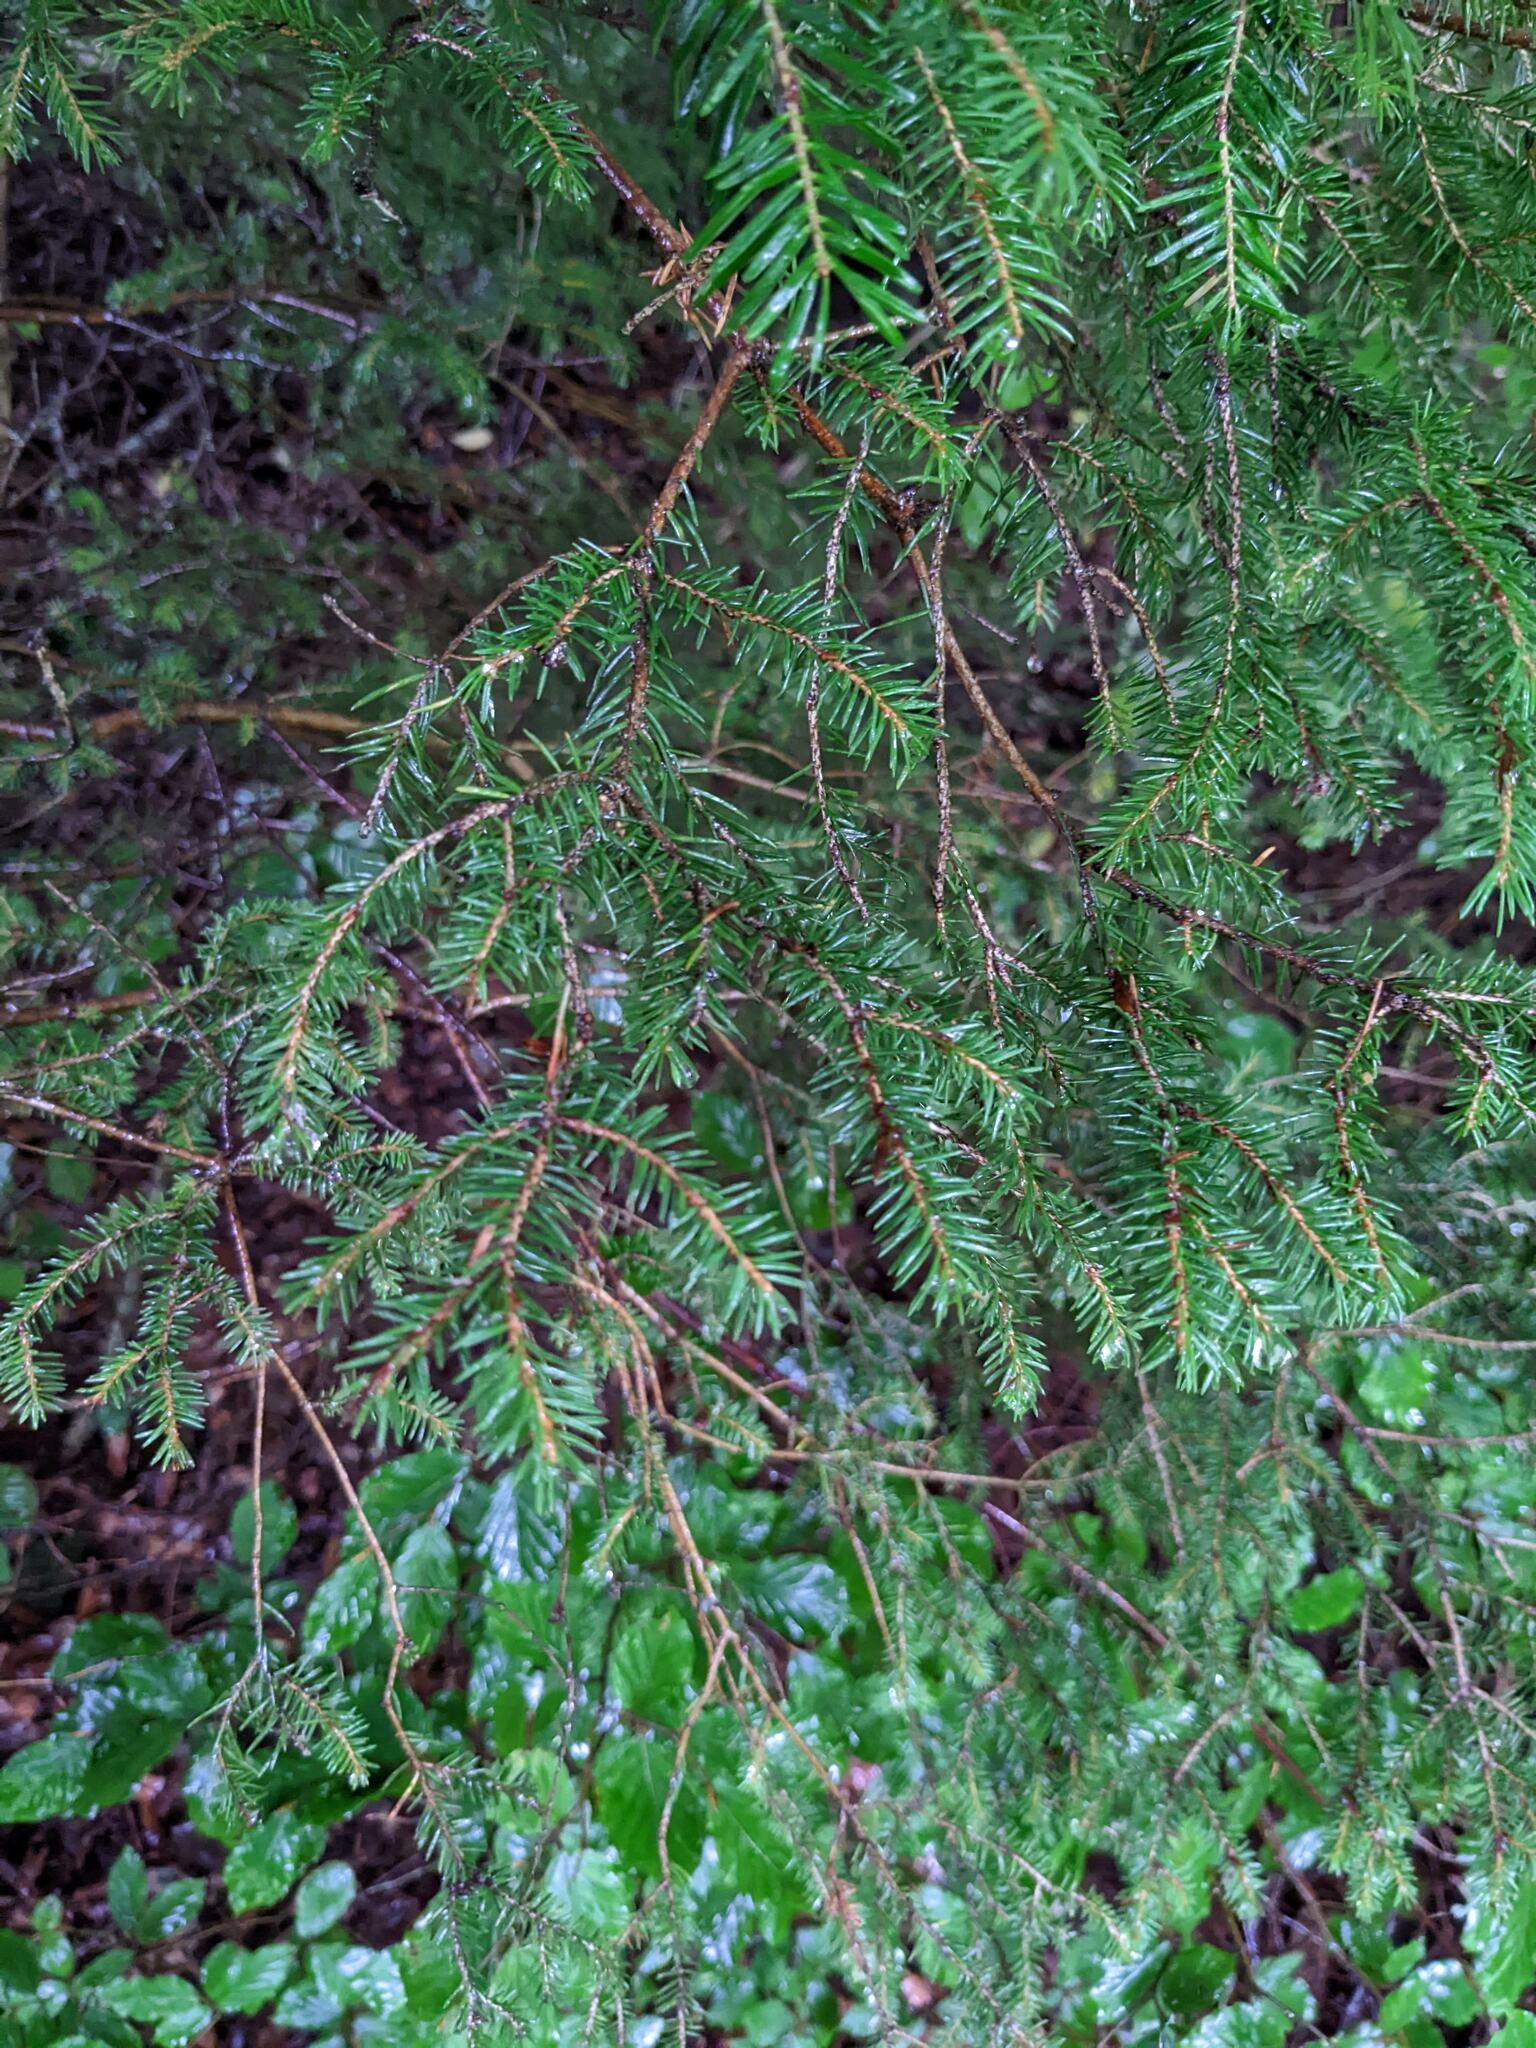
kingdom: Plantae
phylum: Tracheophyta
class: Pinopsida
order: Pinales
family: Pinaceae
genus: Picea
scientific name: Picea abies
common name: Norway spruce
